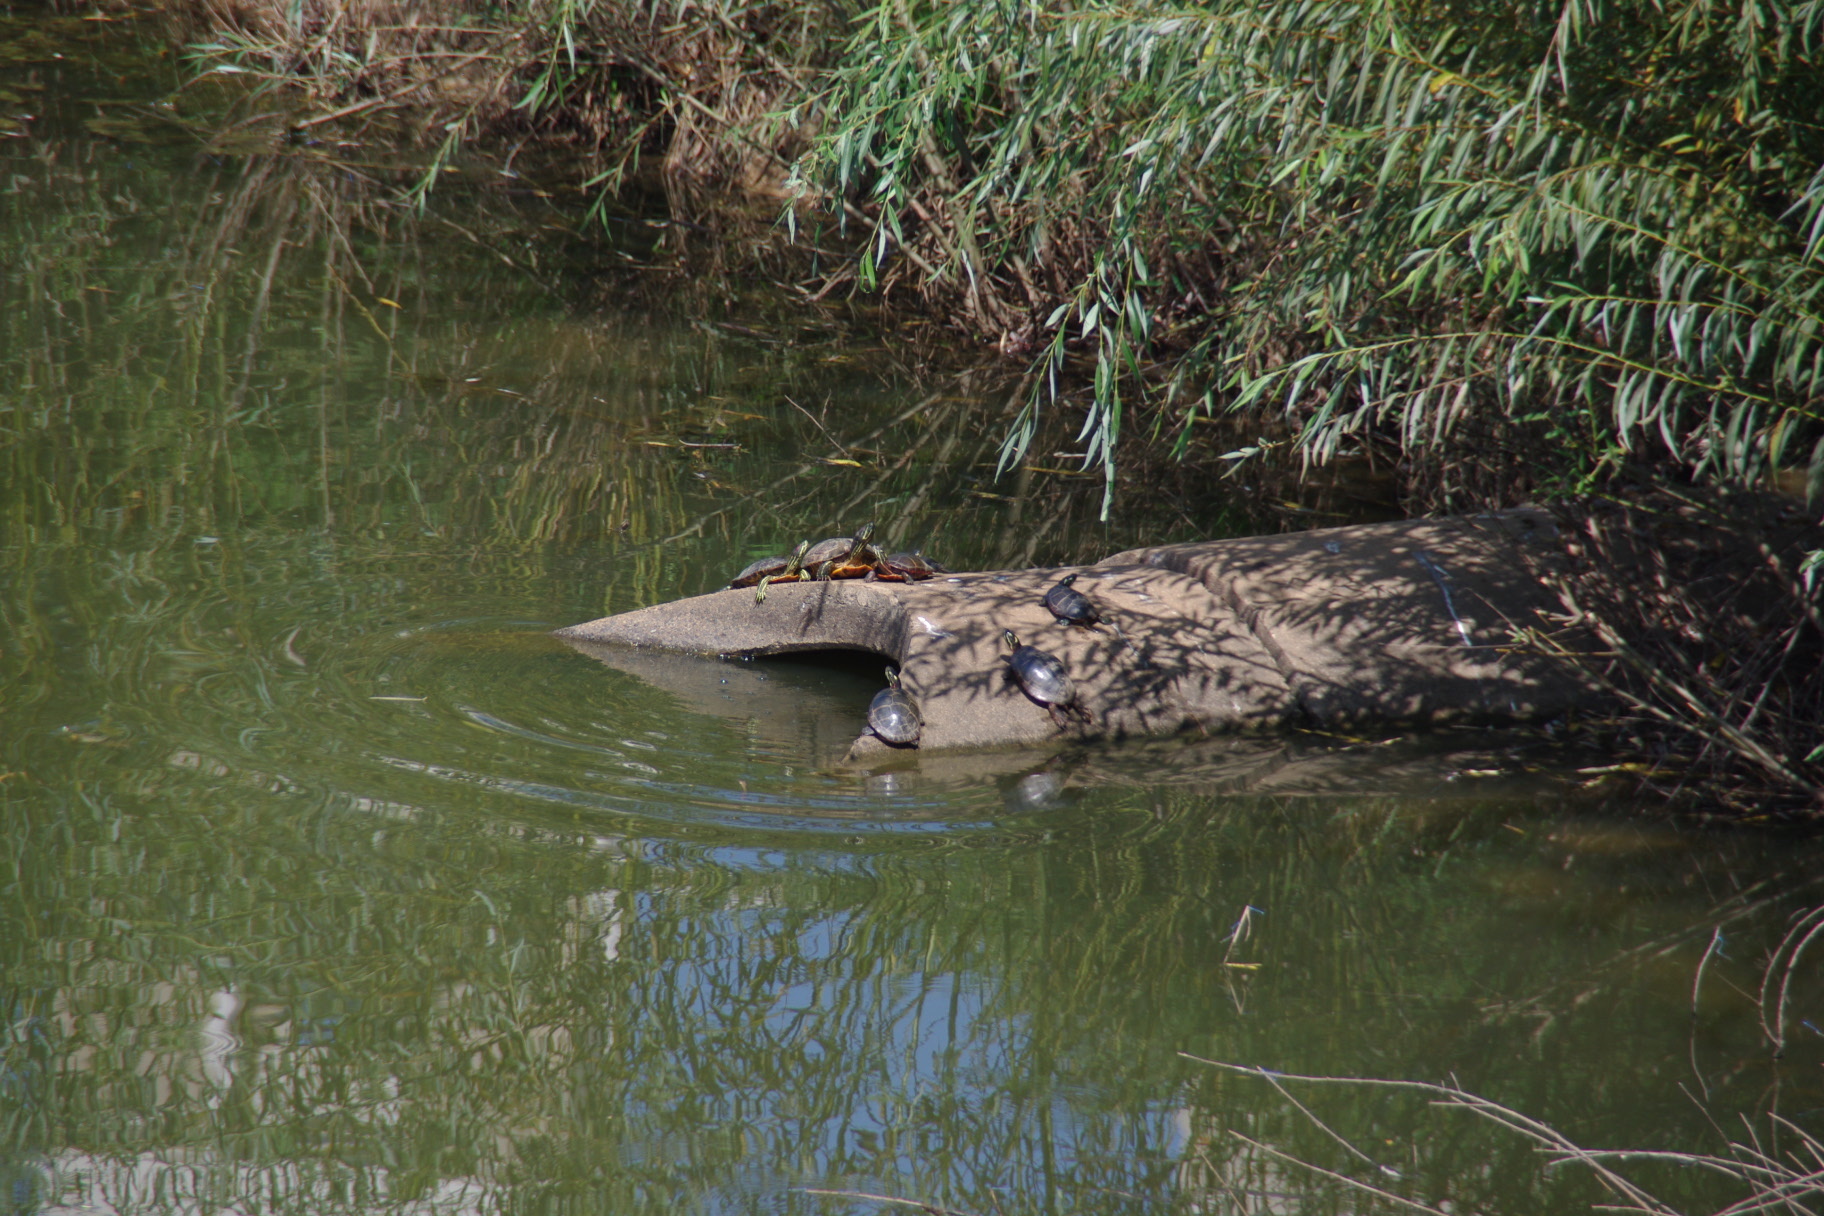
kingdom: Animalia
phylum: Chordata
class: Testudines
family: Emydidae
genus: Trachemys
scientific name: Trachemys scripta
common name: Slider
